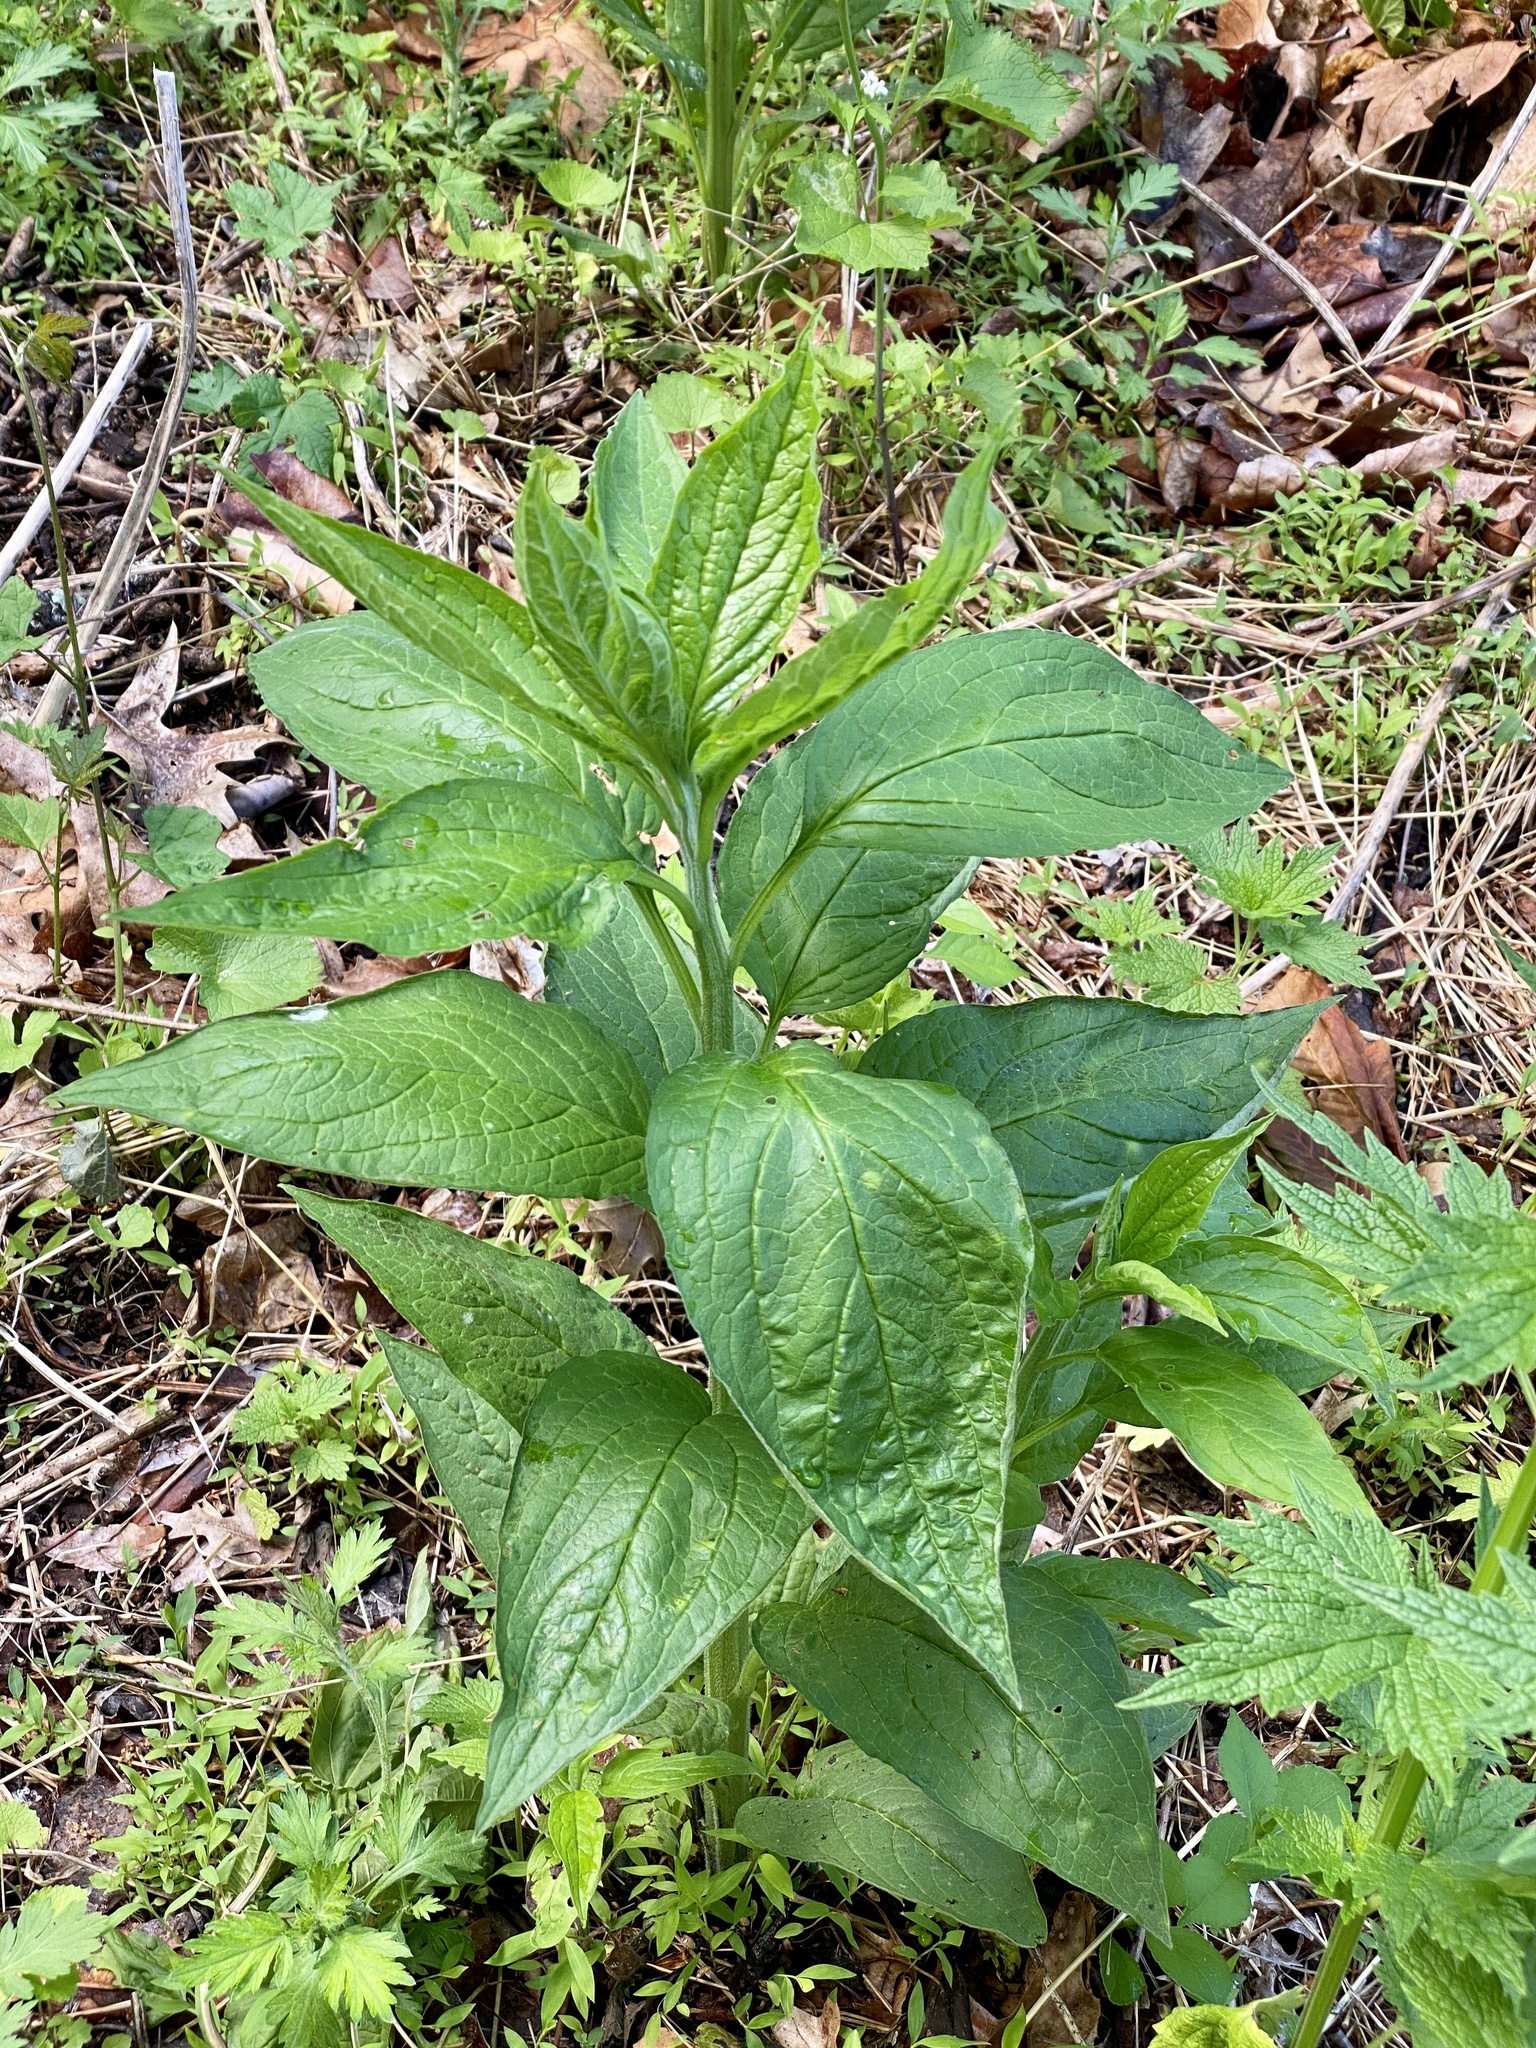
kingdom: Plantae
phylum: Tracheophyta
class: Magnoliopsida
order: Boraginales
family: Boraginaceae
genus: Hackelia
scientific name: Hackelia virginiana
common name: Beggar's-lice
